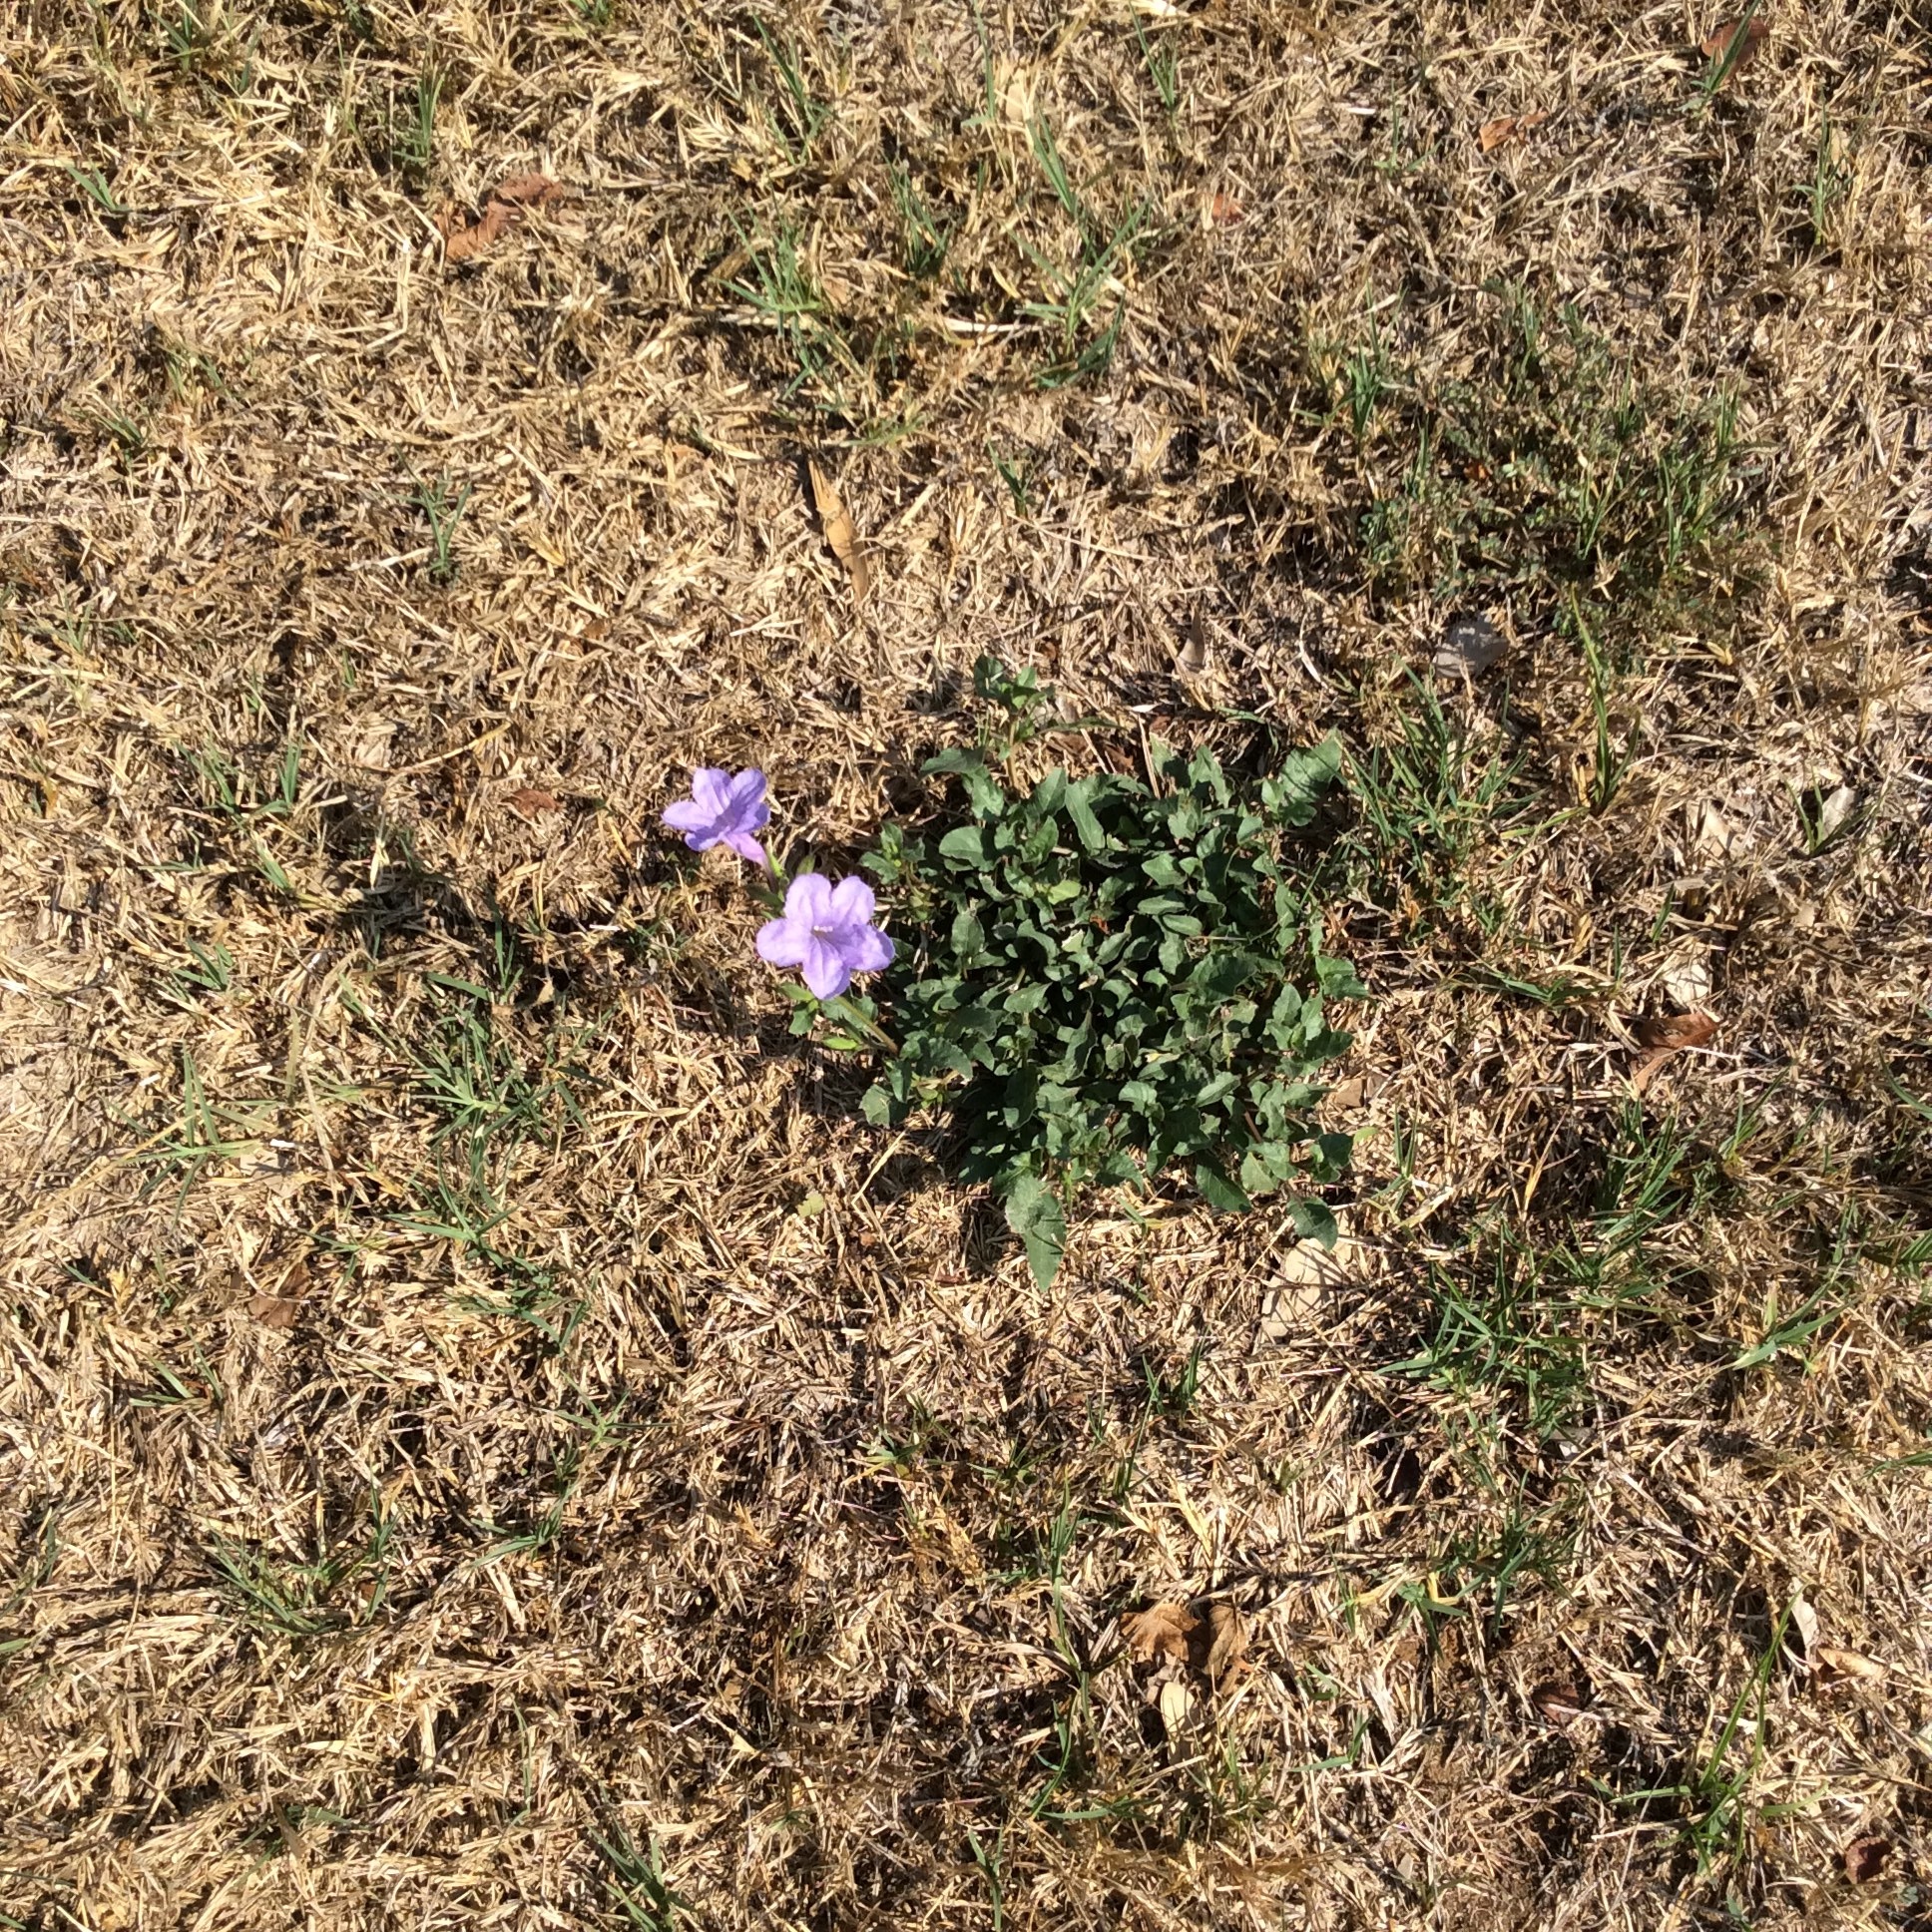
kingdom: Plantae
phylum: Tracheophyta
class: Magnoliopsida
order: Lamiales
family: Acanthaceae
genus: Ruellia
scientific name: Ruellia ciliatiflora
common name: Hairyflower wild petunia
